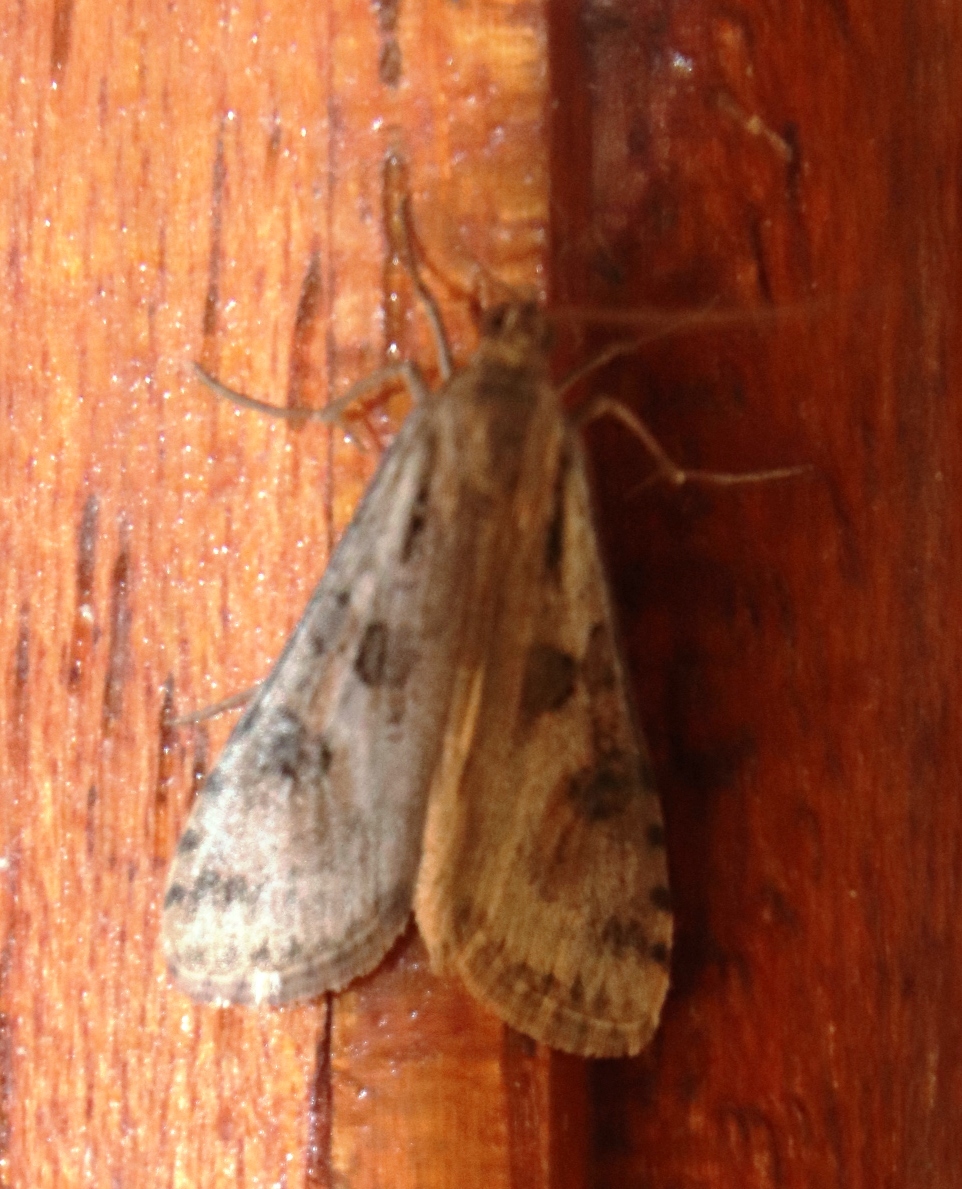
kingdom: Animalia
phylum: Arthropoda
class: Insecta
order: Lepidoptera
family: Crambidae
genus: Nomophila
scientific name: Nomophila noctuella
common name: Rush veneer
